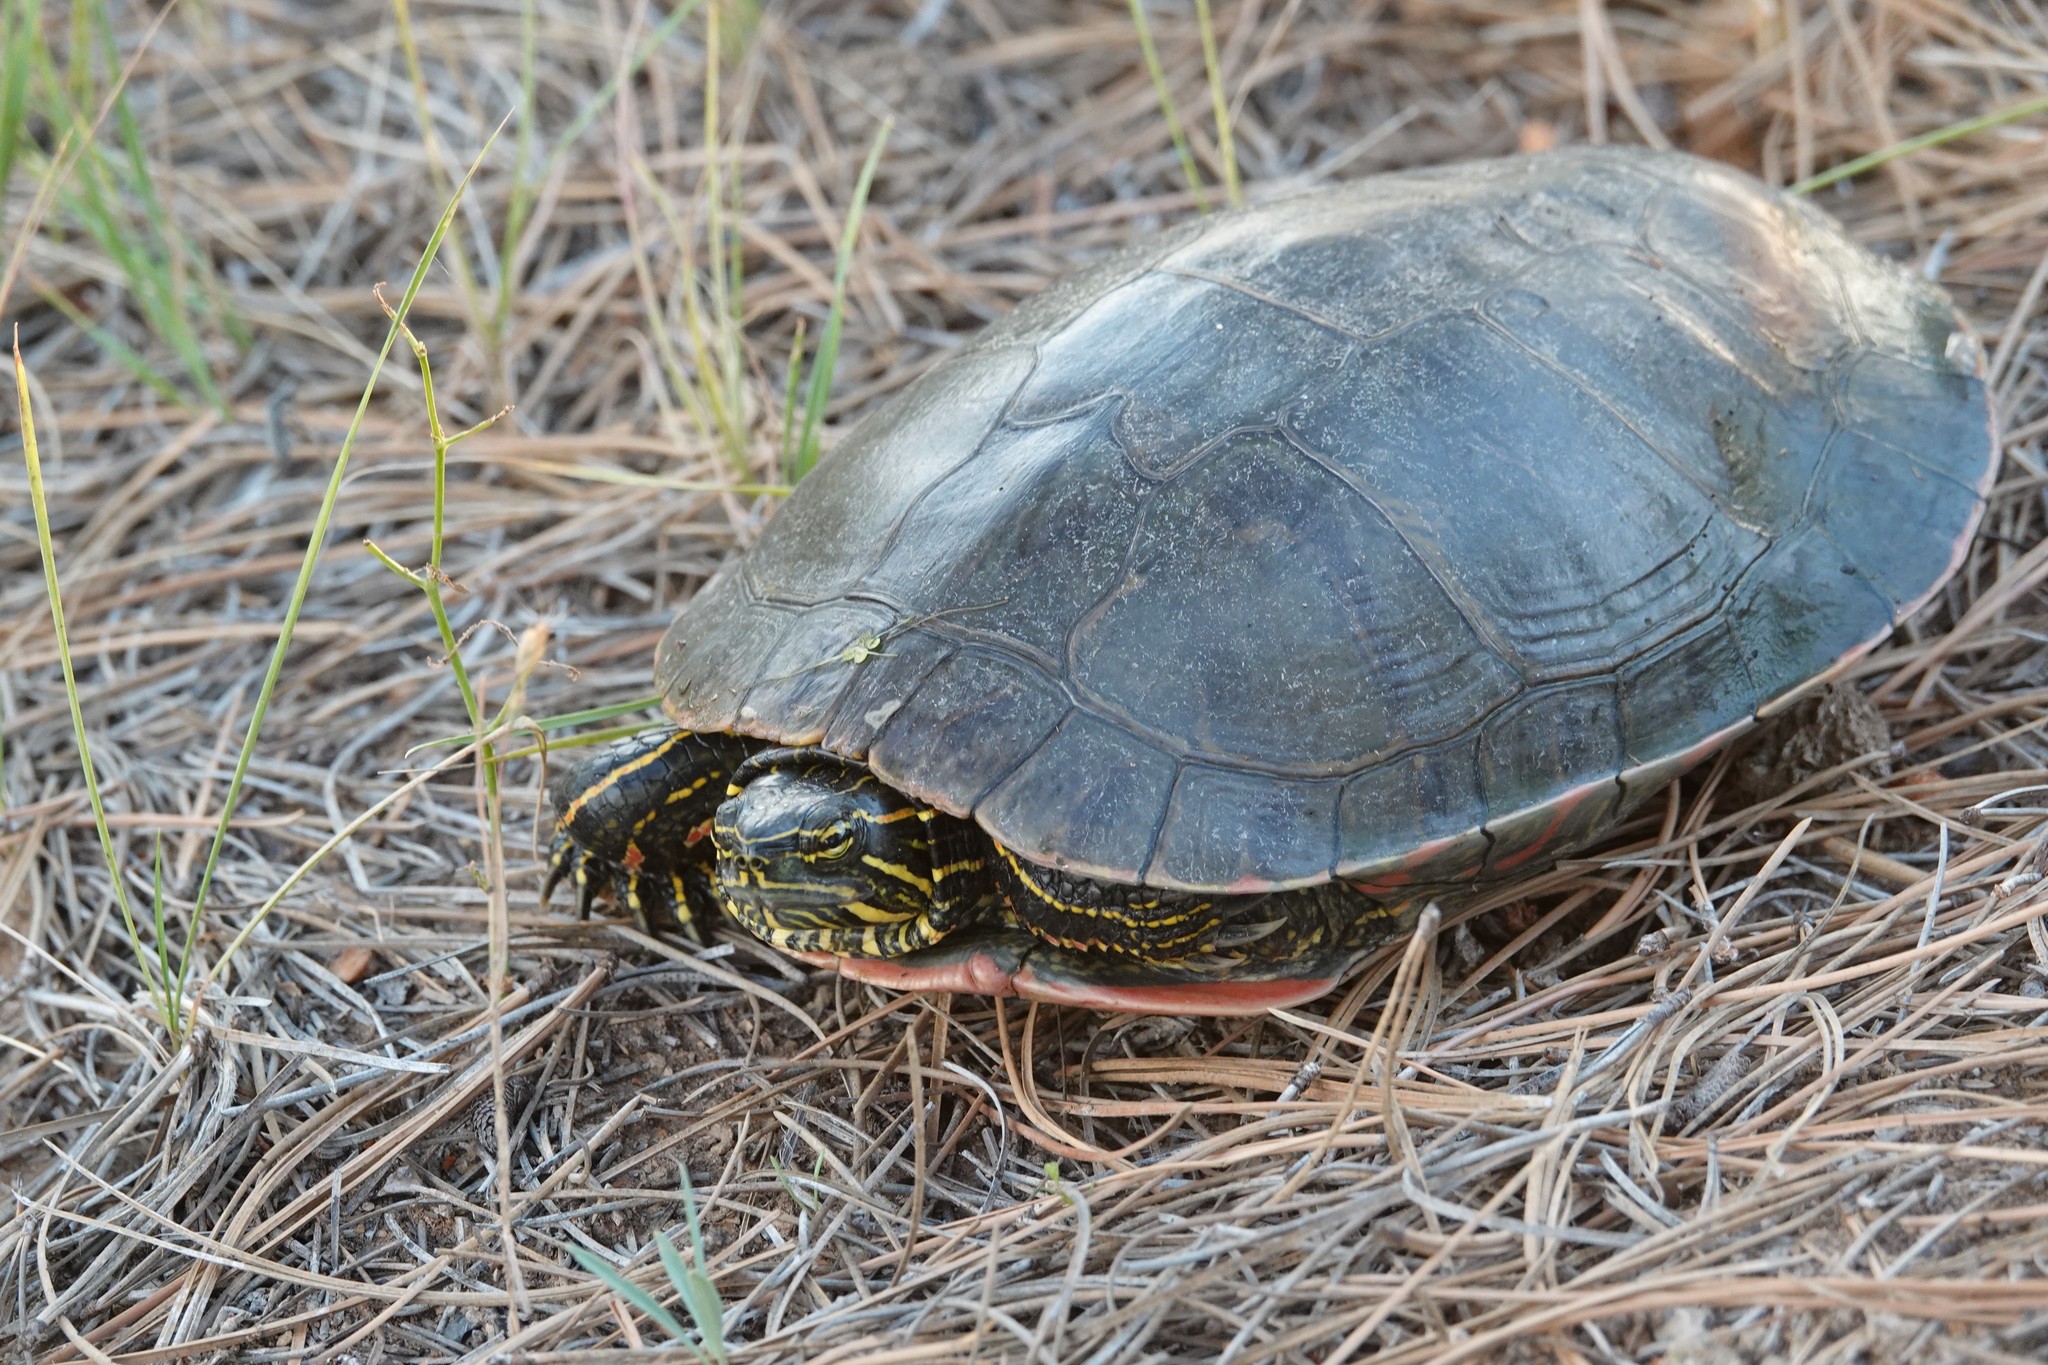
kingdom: Animalia
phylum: Chordata
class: Testudines
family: Emydidae
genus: Chrysemys
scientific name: Chrysemys picta
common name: Painted turtle
